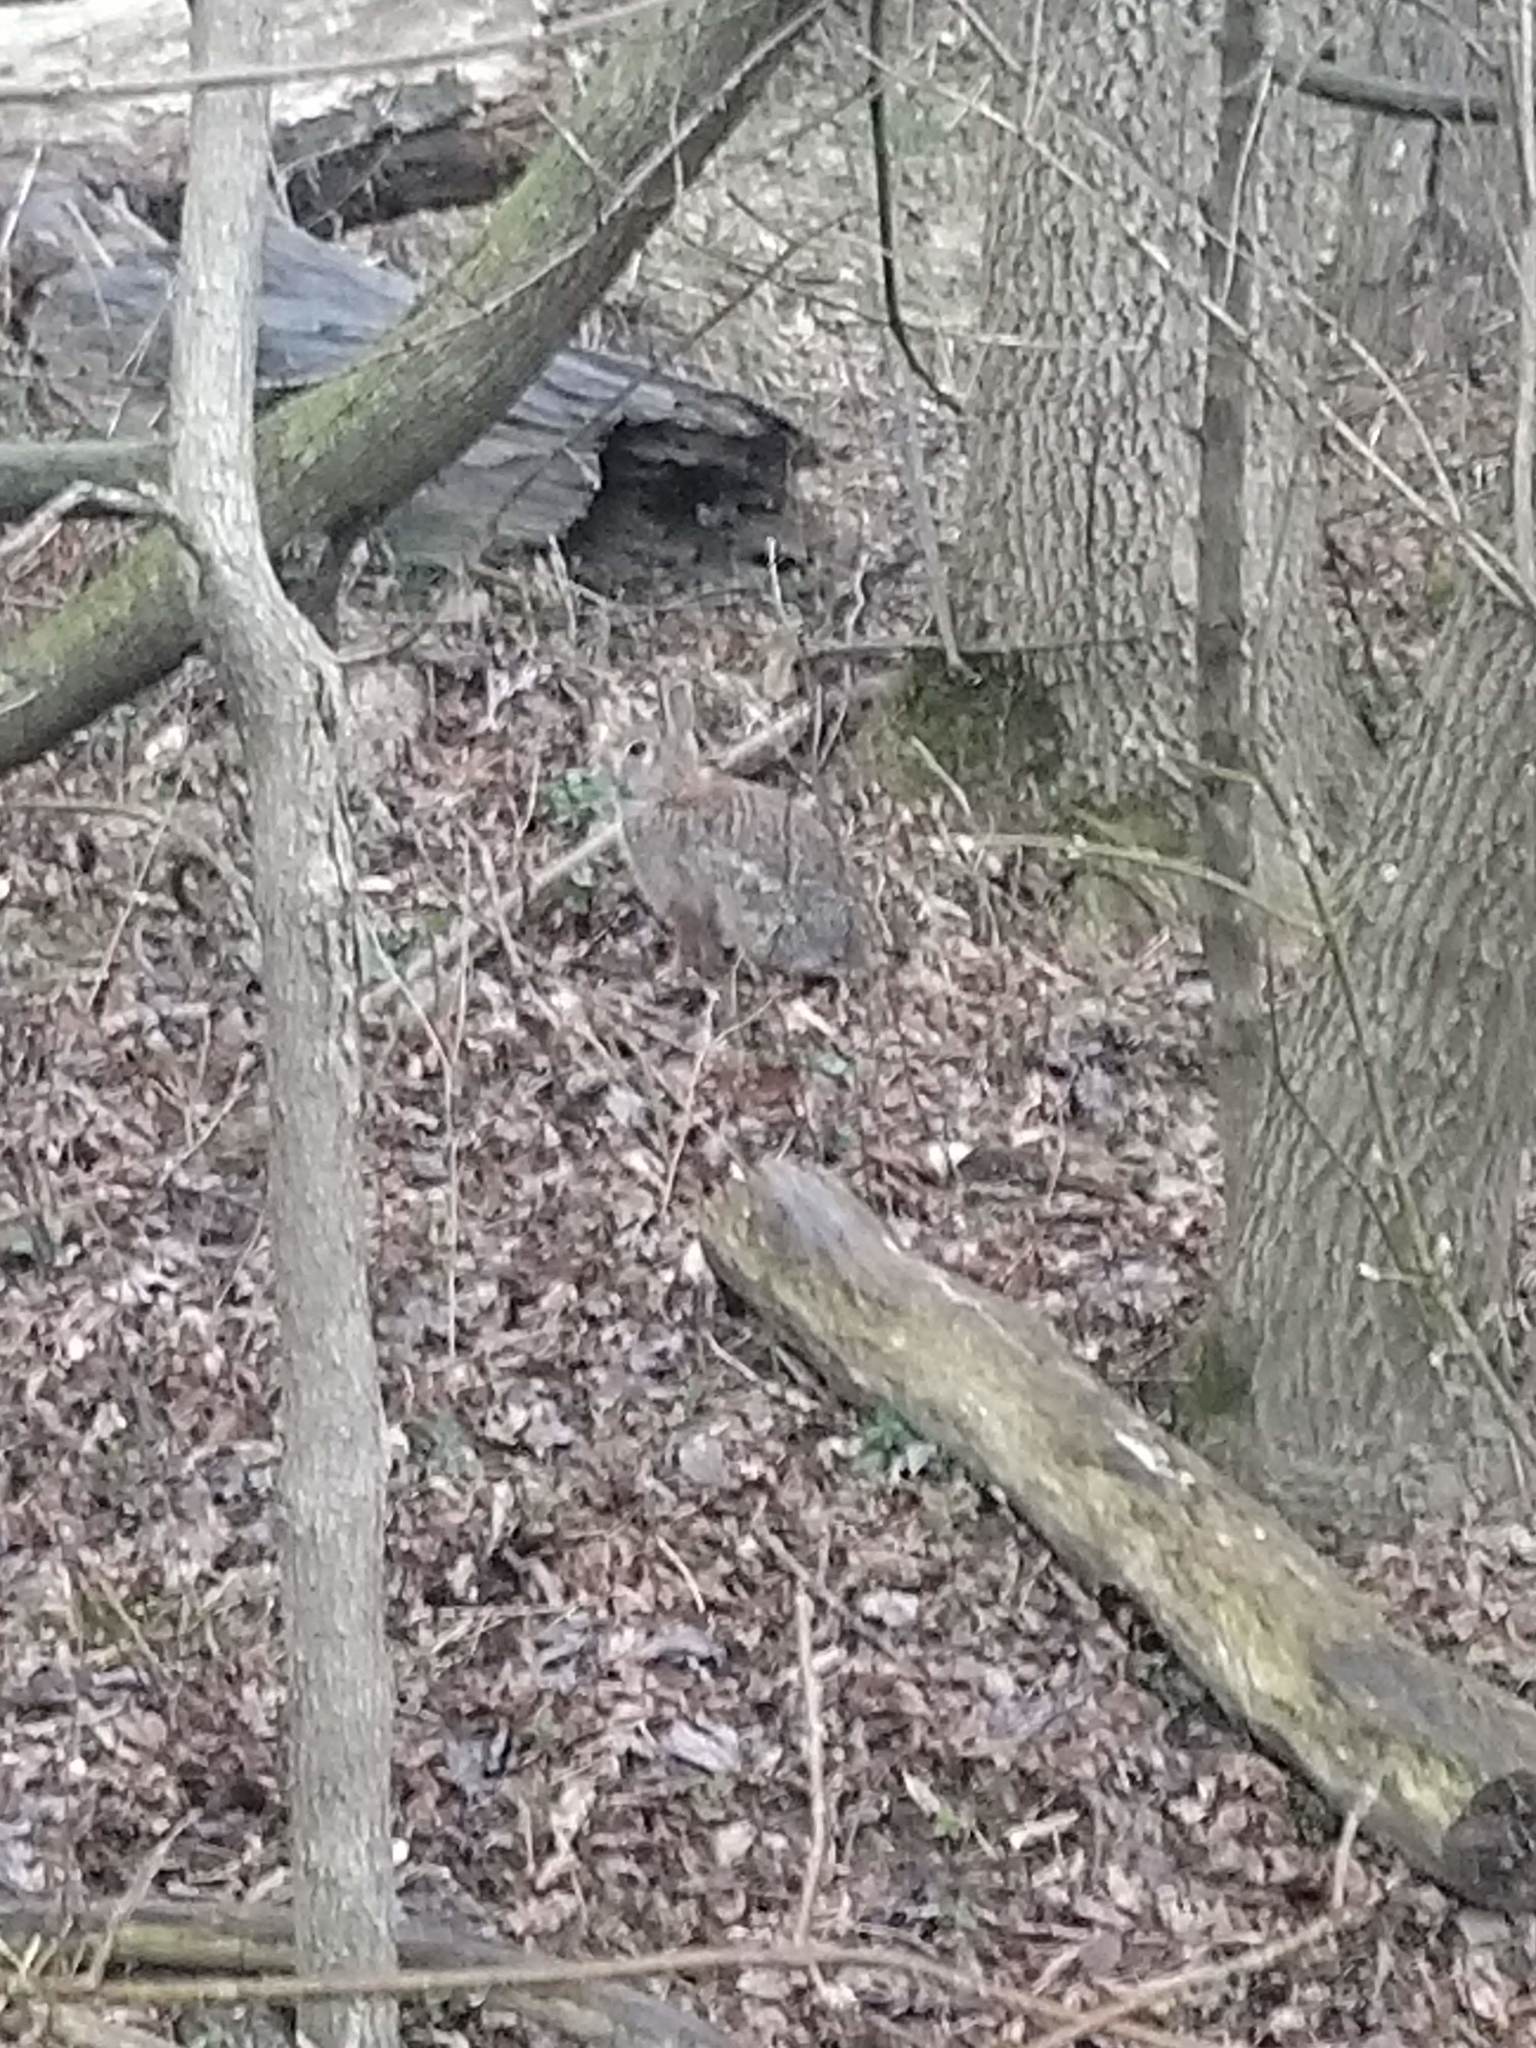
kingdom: Animalia
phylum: Chordata
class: Mammalia
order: Lagomorpha
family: Leporidae
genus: Sylvilagus
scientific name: Sylvilagus floridanus
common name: Eastern cottontail
